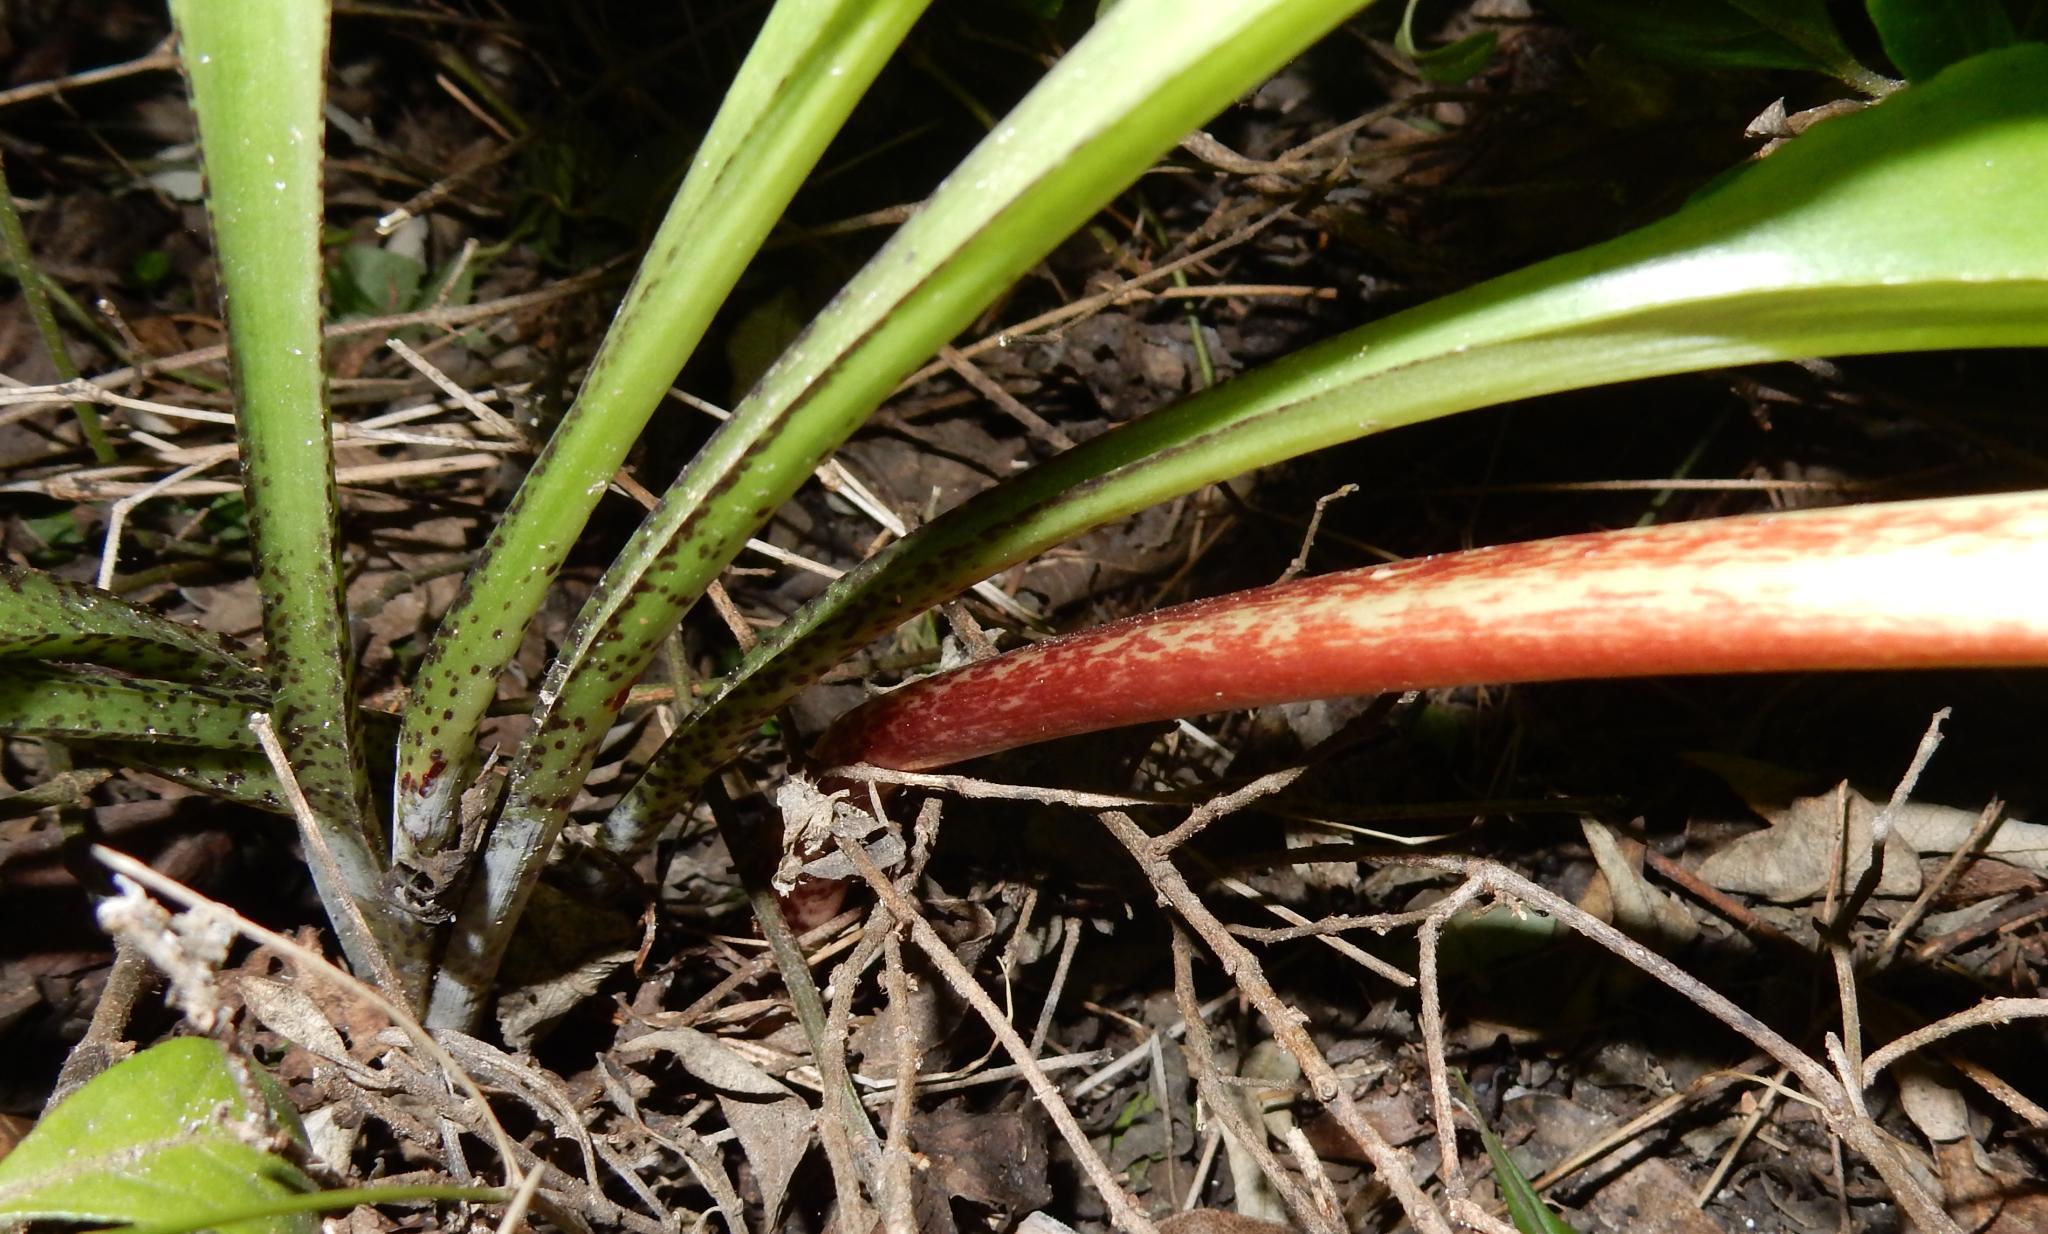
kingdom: Plantae
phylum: Tracheophyta
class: Liliopsida
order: Asparagales
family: Amaryllidaceae
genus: Scadoxus
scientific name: Scadoxus membranaceus
